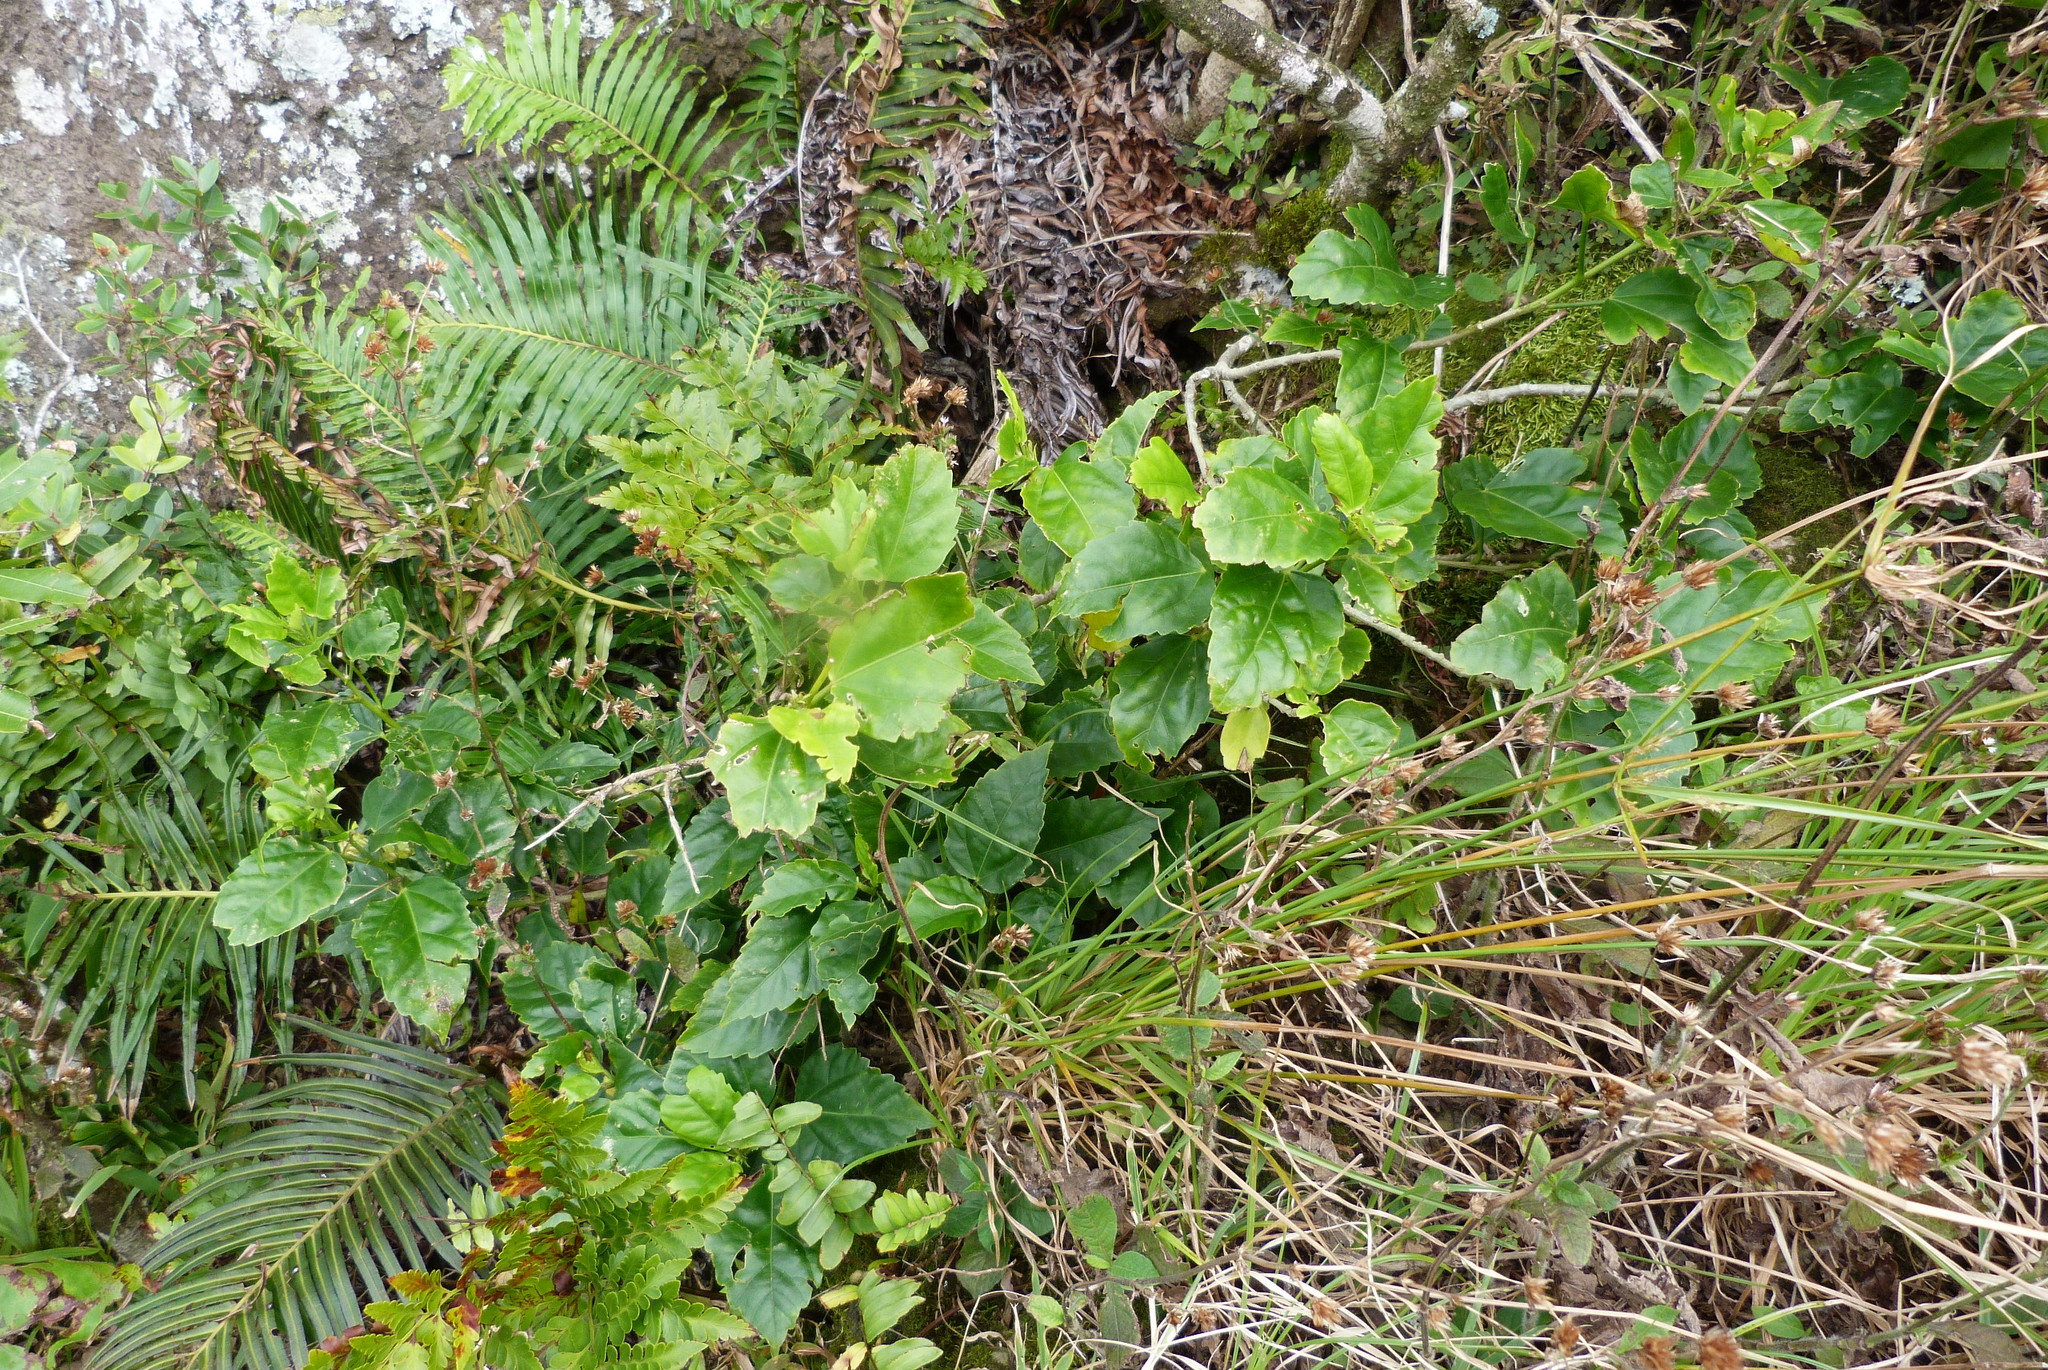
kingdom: Plantae
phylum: Tracheophyta
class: Magnoliopsida
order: Malvales
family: Malvaceae
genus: Hibiscus
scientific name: Hibiscus rosa-sinensis
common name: Hibiscus
